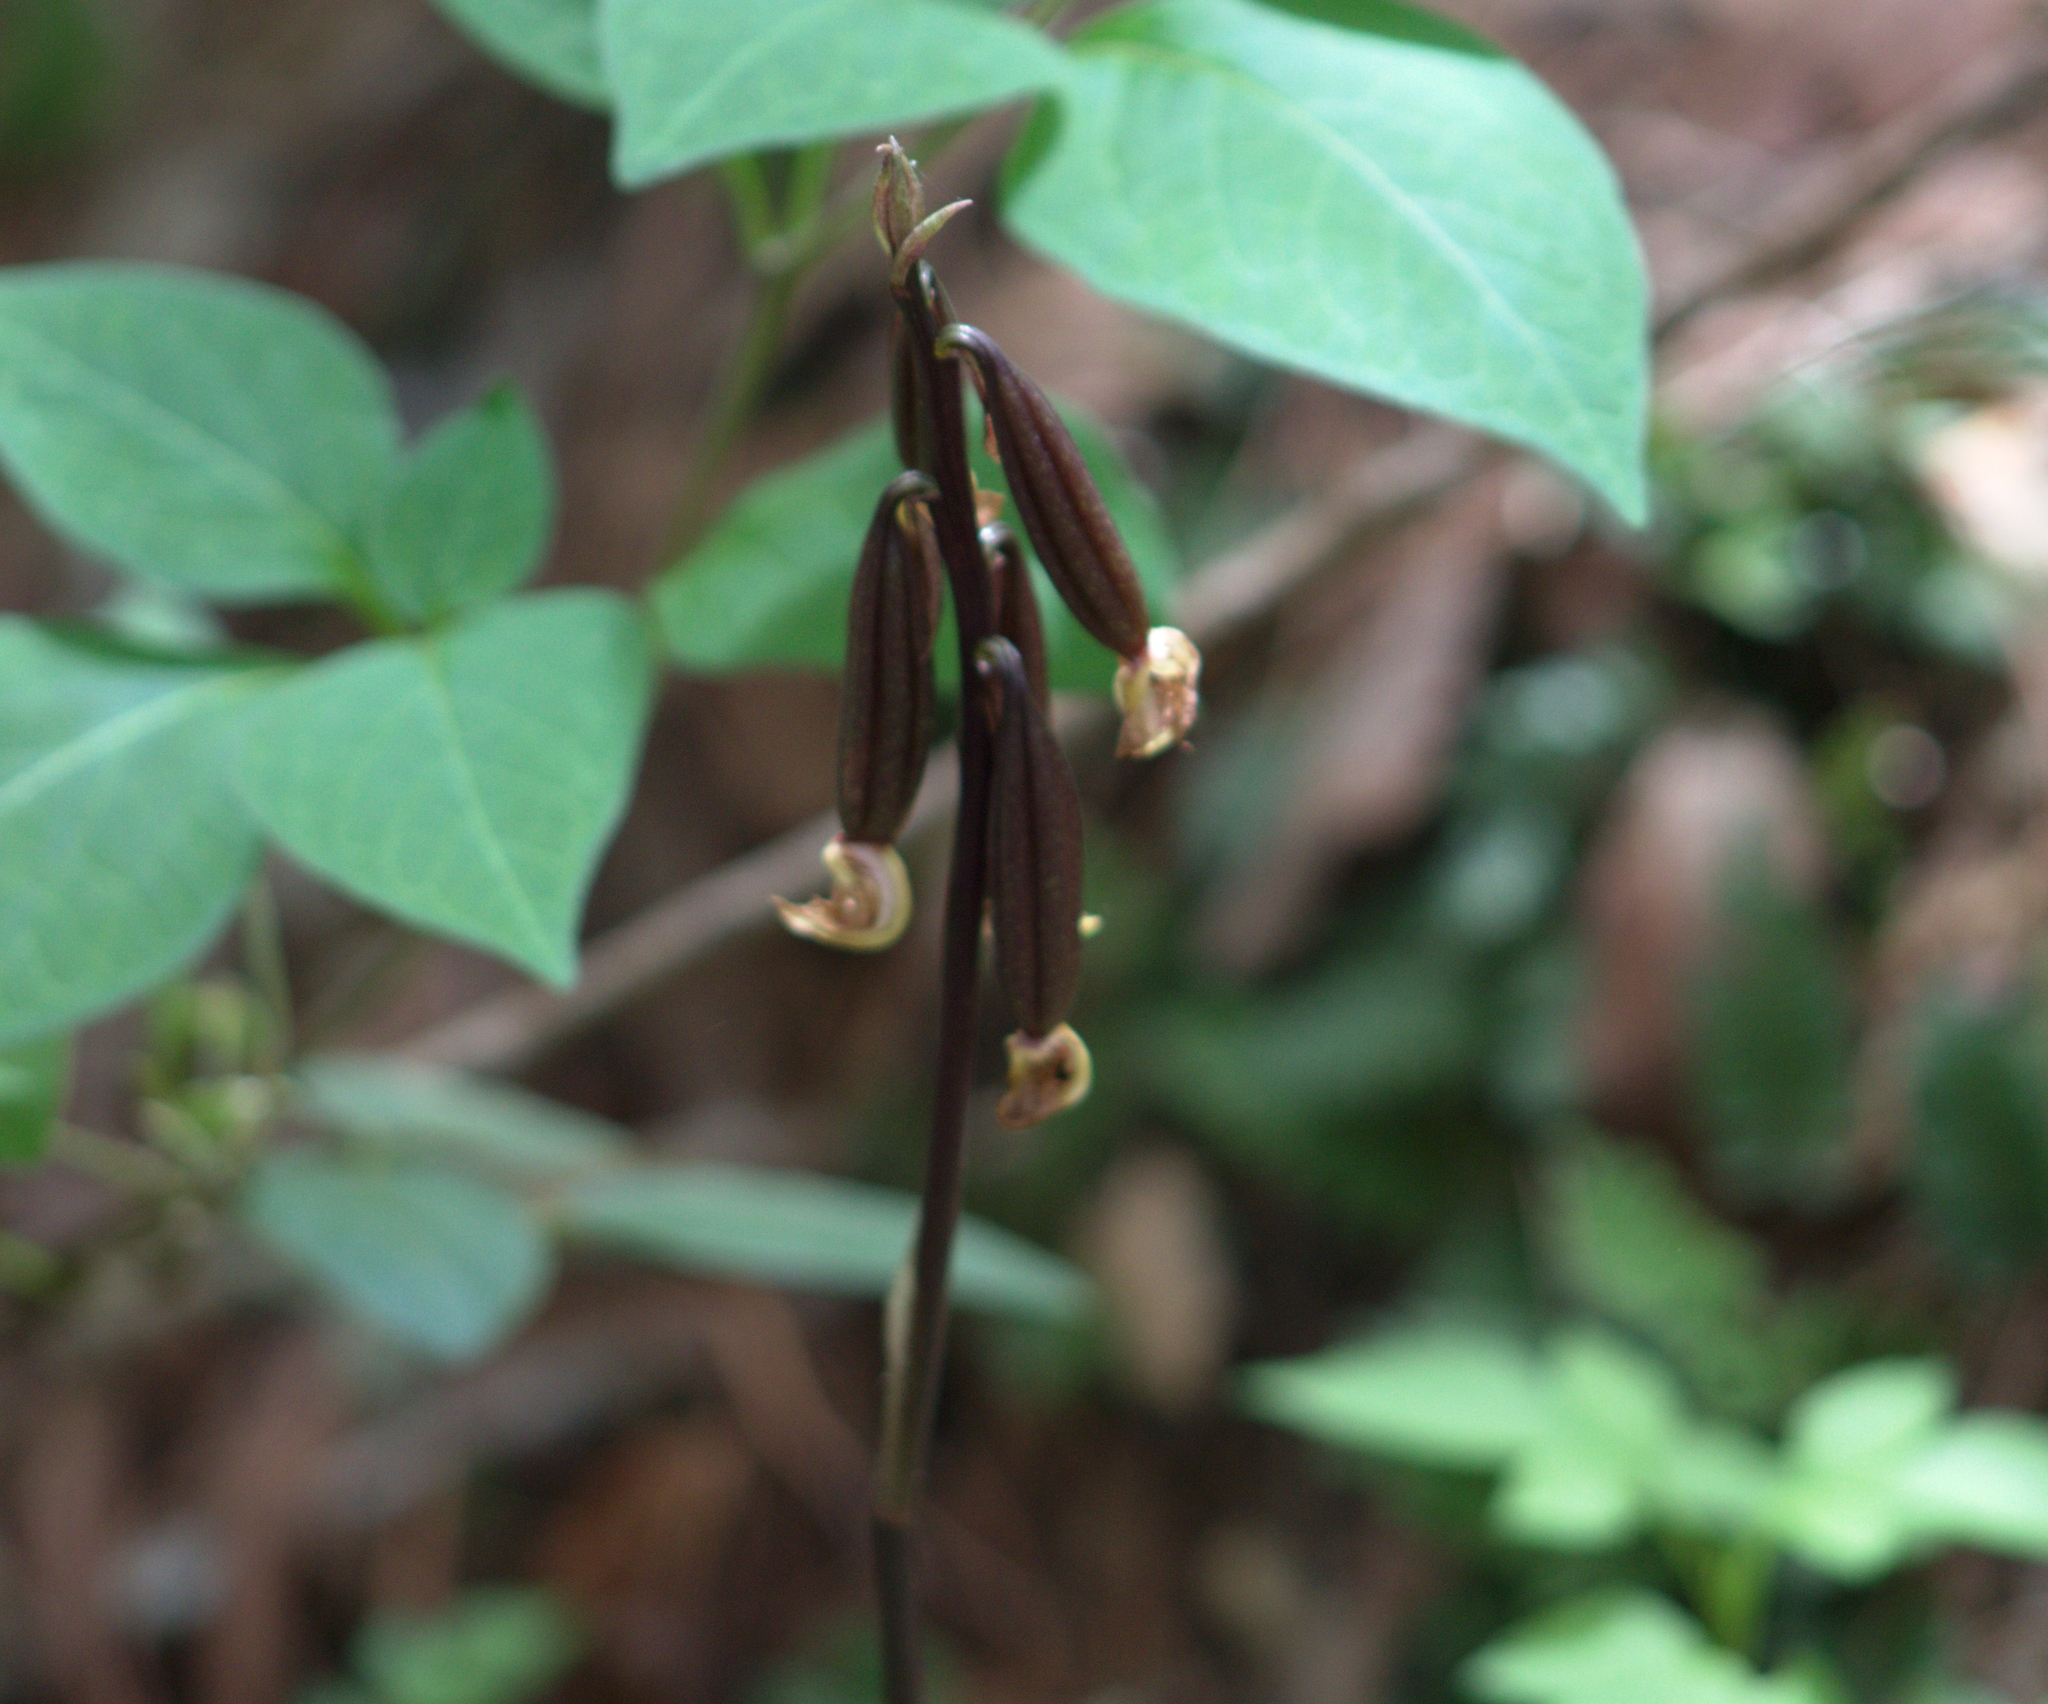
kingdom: Plantae
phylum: Tracheophyta
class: Liliopsida
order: Asparagales
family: Orchidaceae
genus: Eulophia
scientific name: Eulophia maculata
